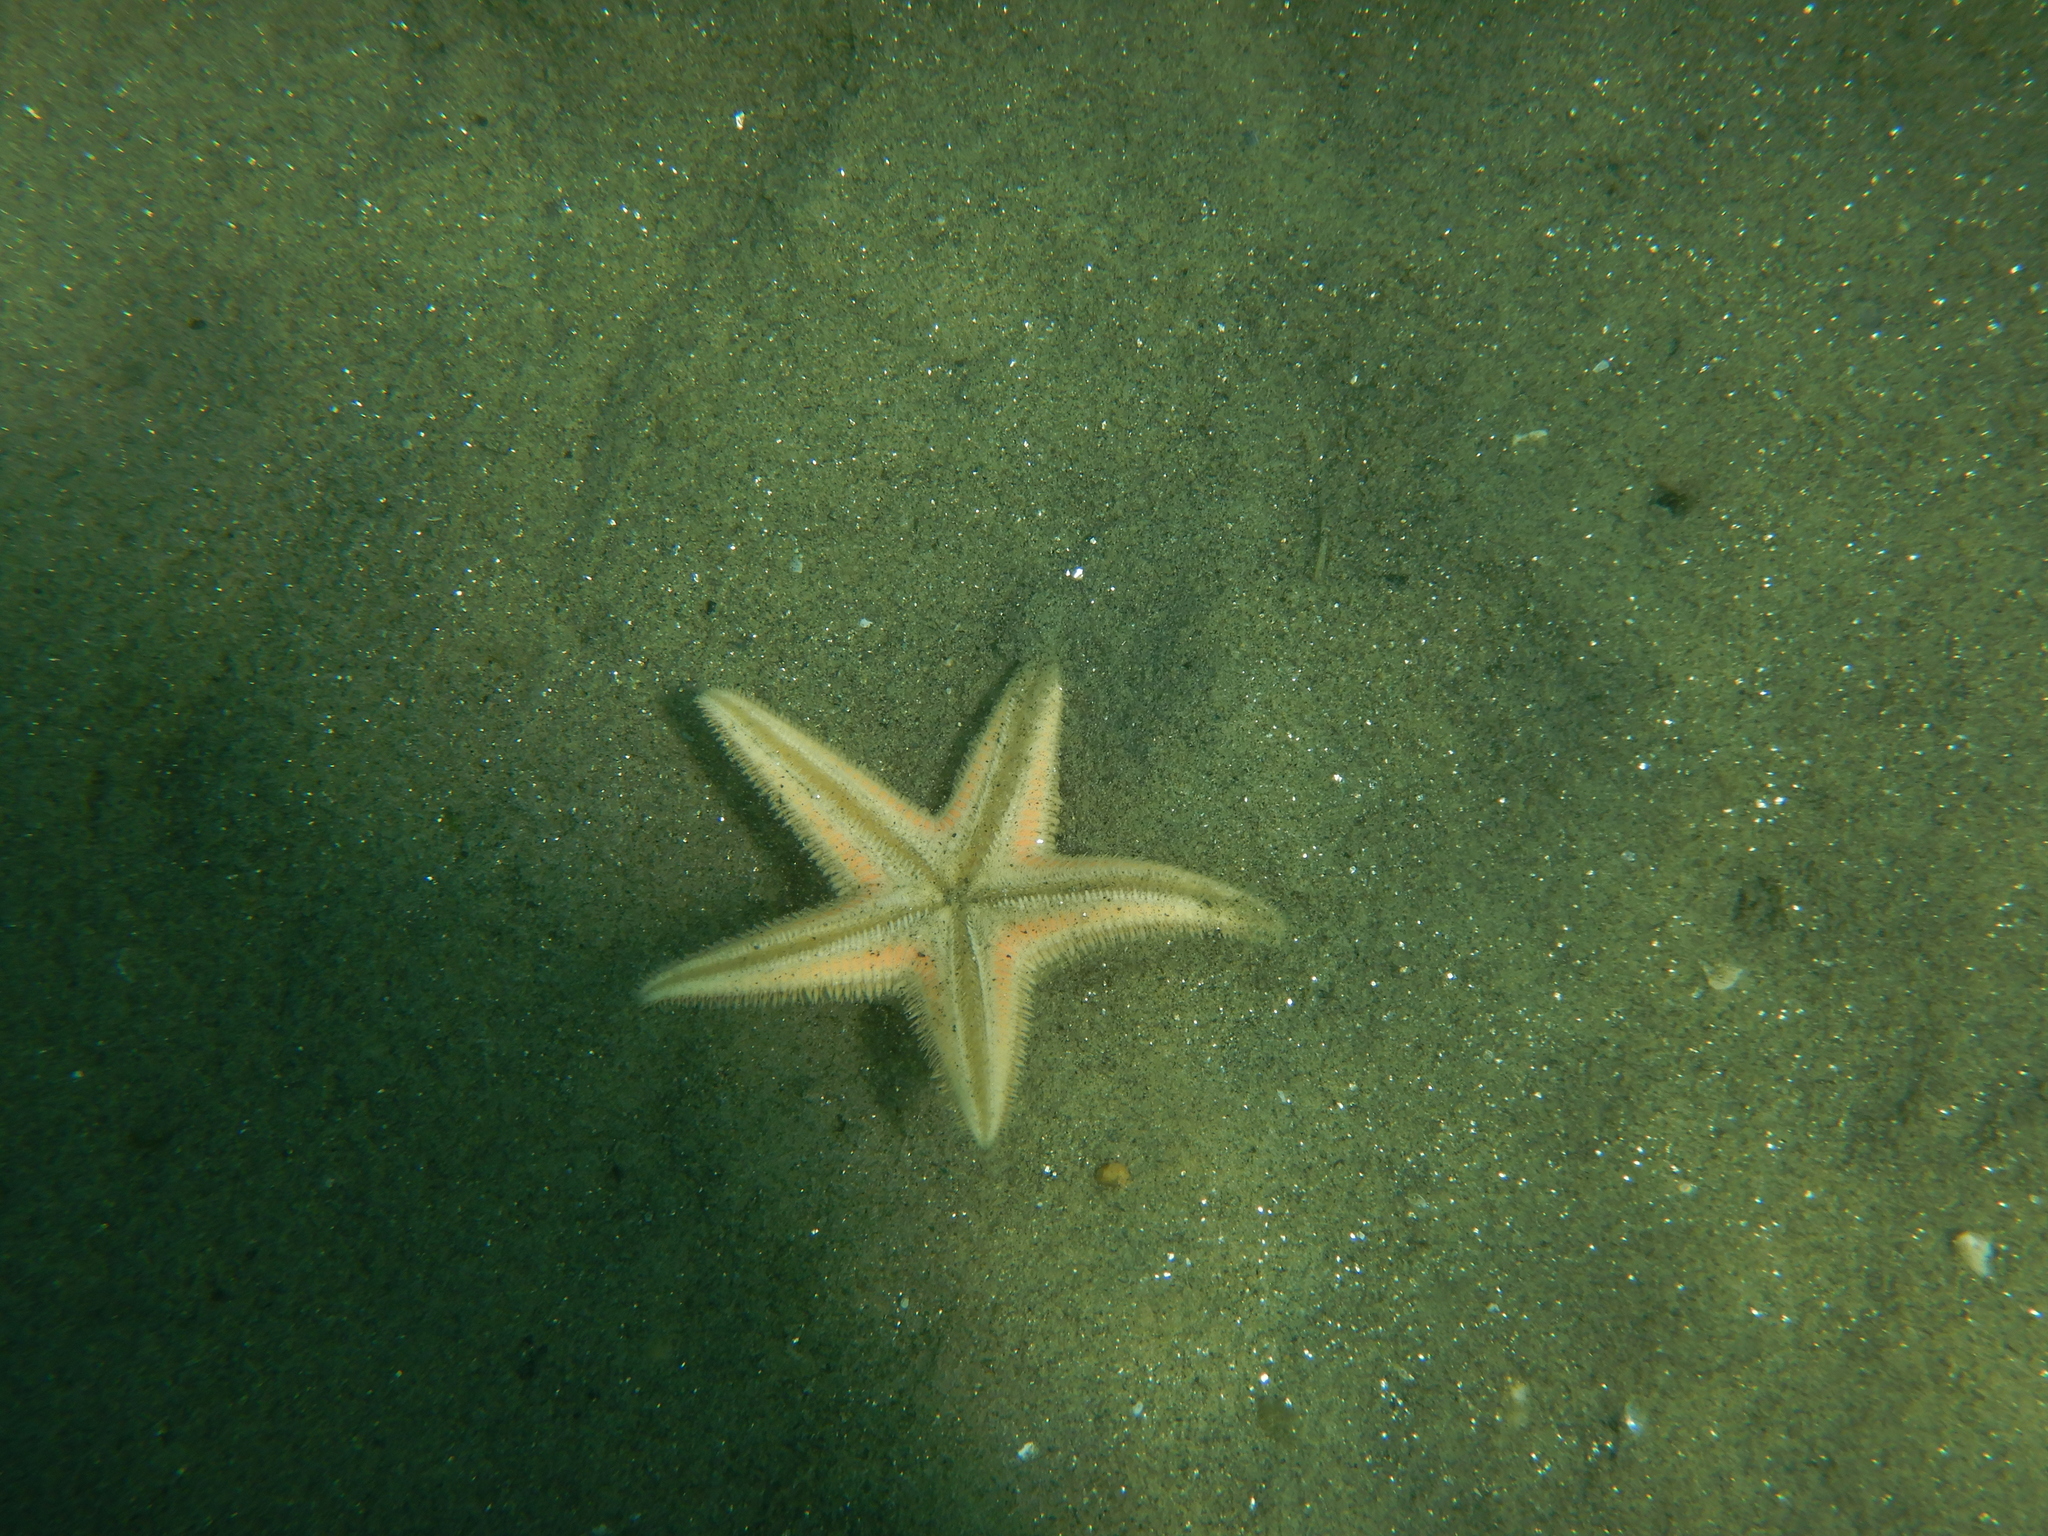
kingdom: Animalia
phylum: Echinodermata
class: Asteroidea
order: Paxillosida
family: Astropectinidae
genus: Astropecten
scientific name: Astropecten jonstoni
